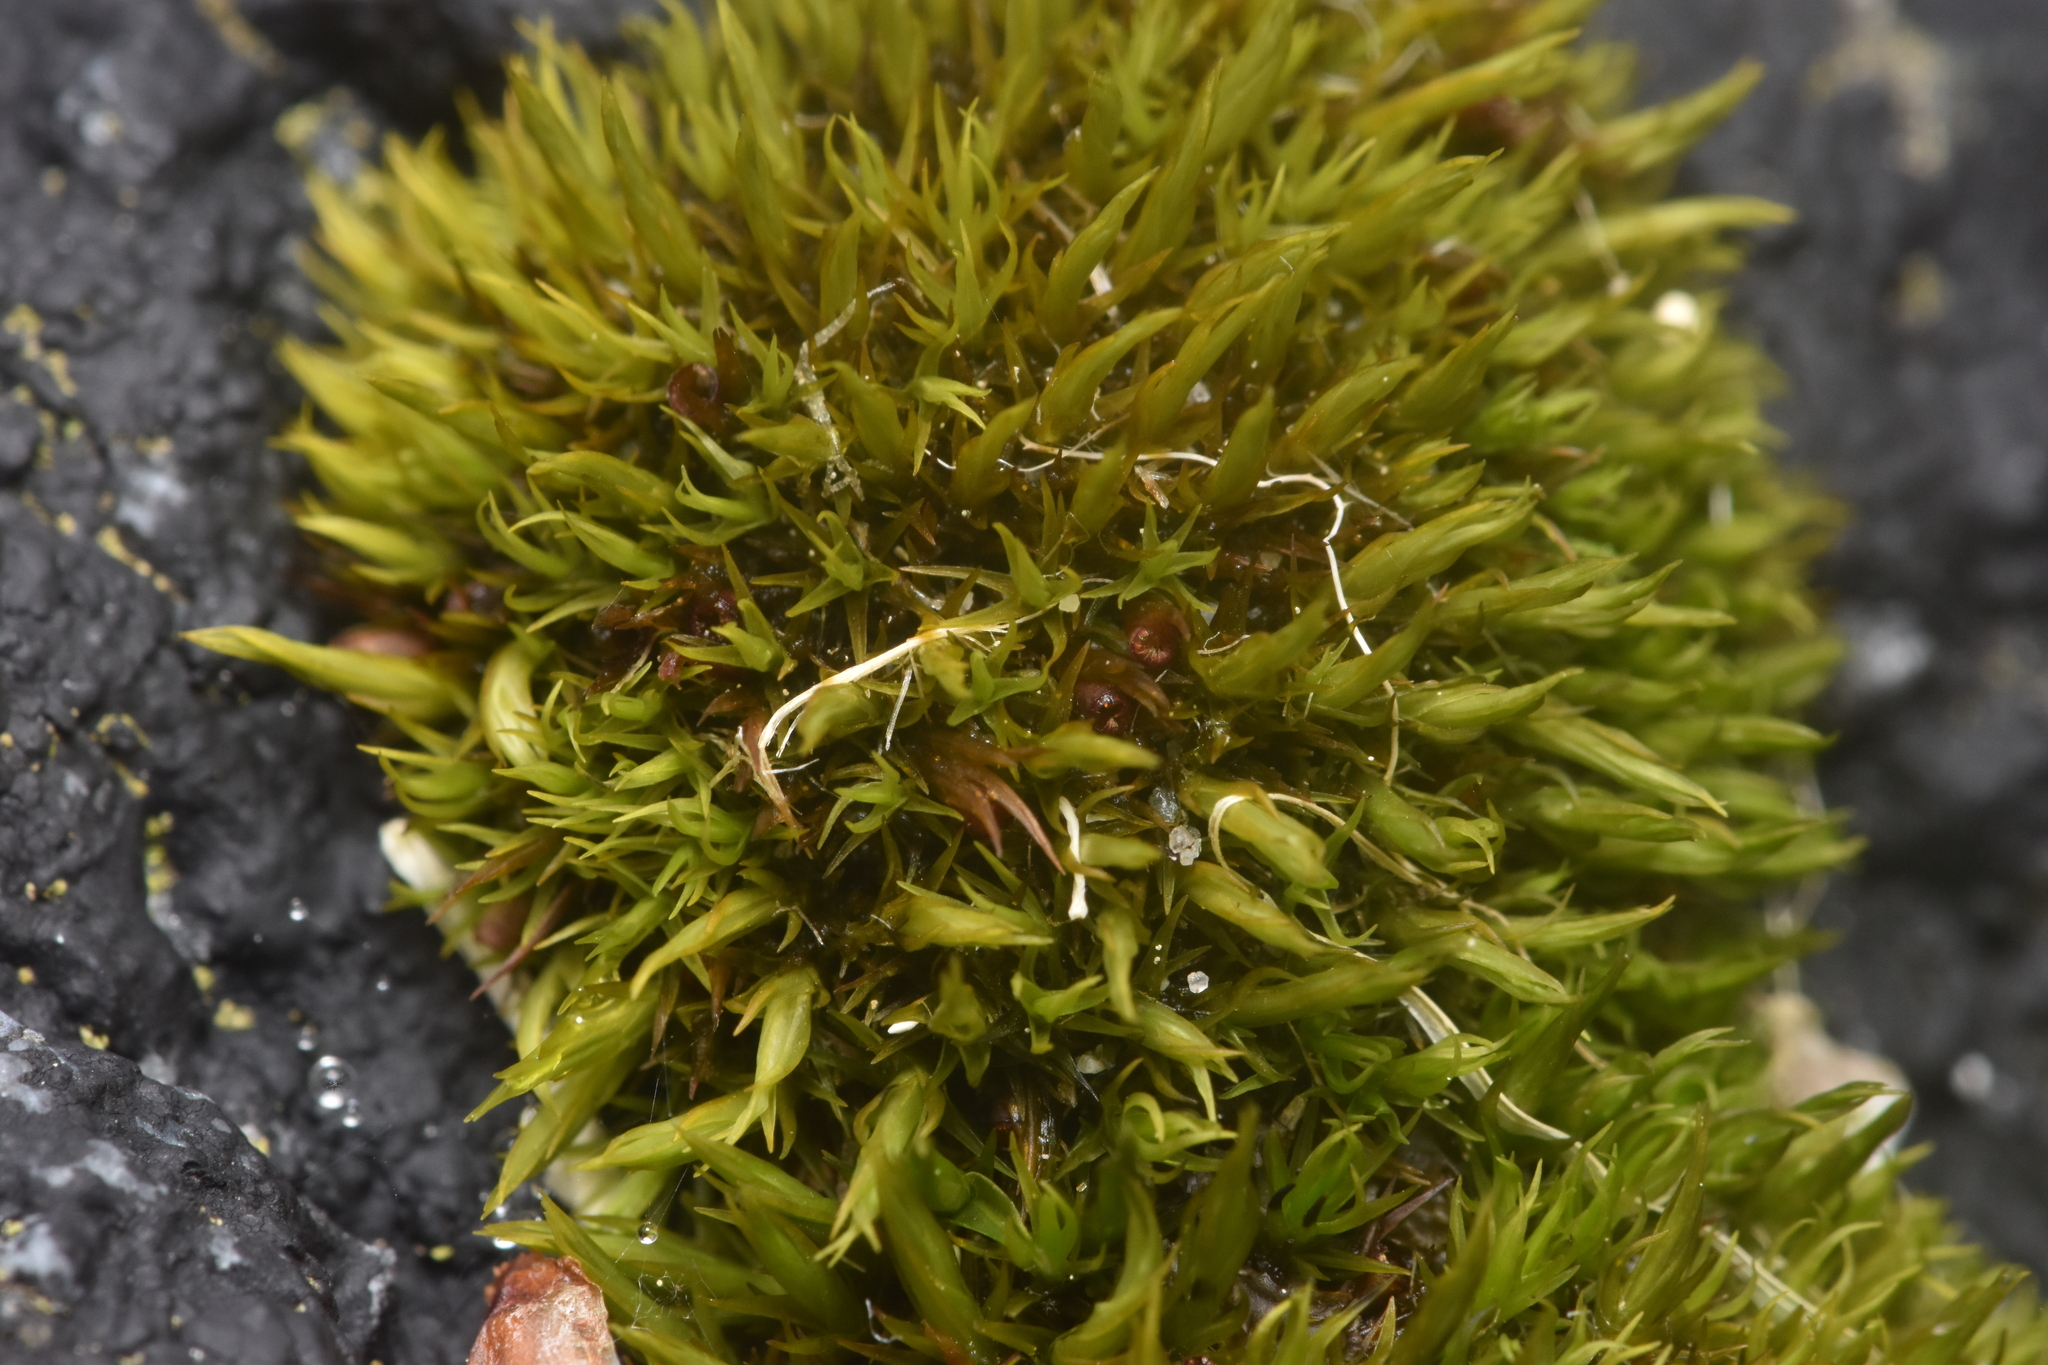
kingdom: Plantae
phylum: Bryophyta
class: Bryopsida
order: Grimmiales
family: Grimmiaceae
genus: Schistidium
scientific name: Schistidium maritimum
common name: Seaside bloom moss
